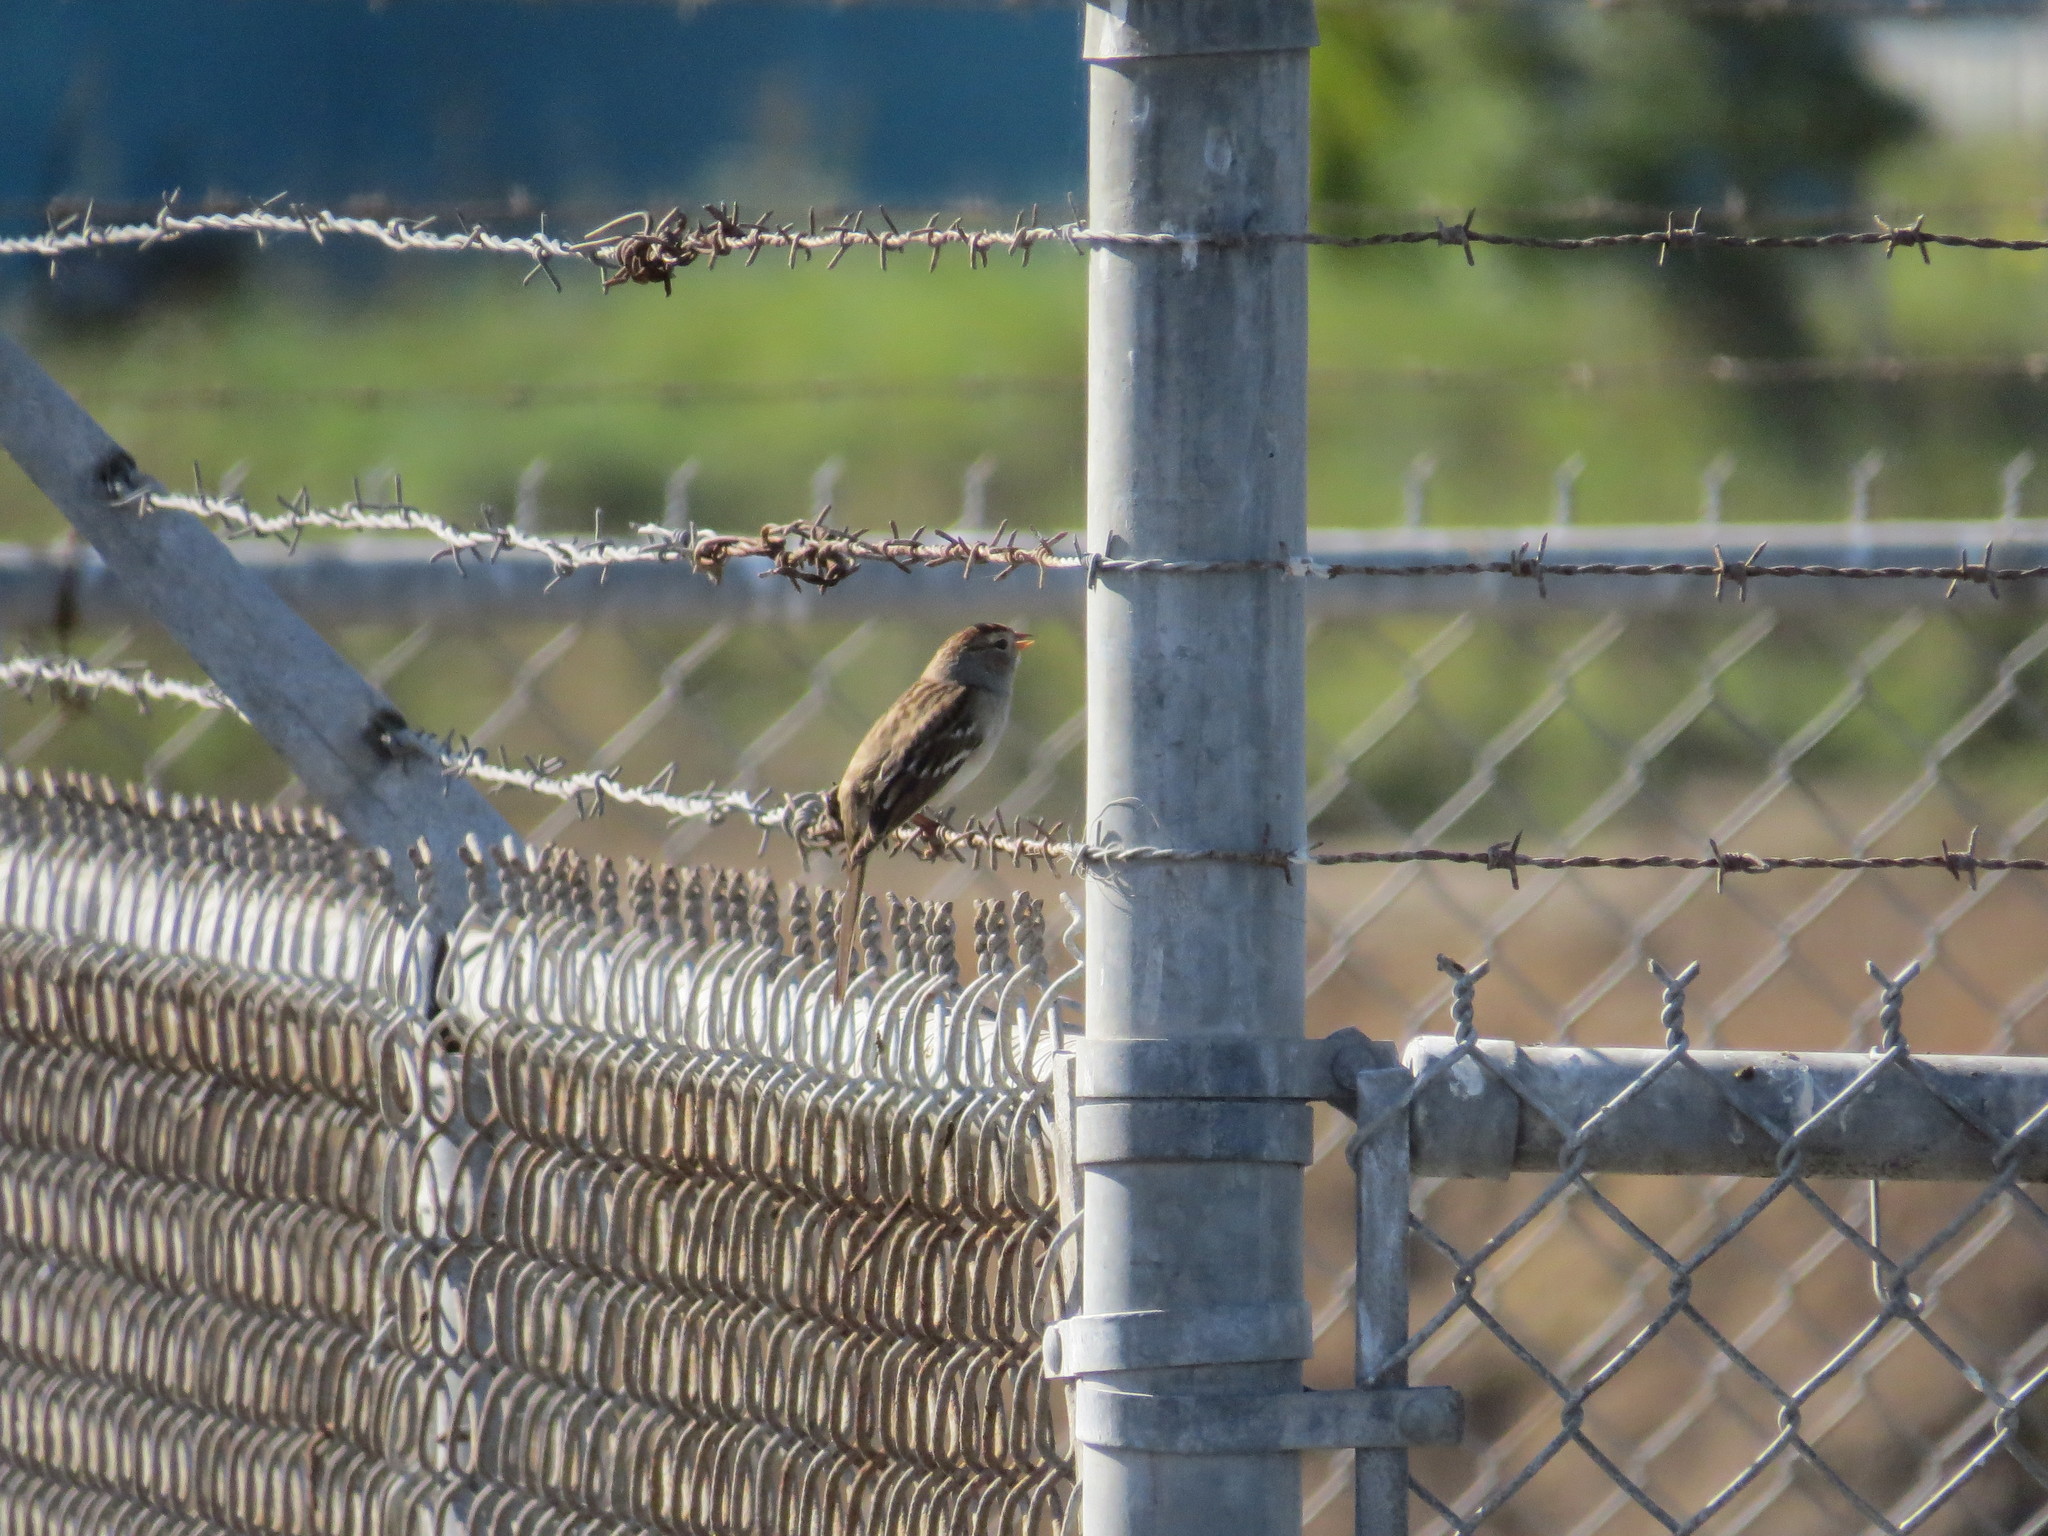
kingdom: Animalia
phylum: Chordata
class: Aves
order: Passeriformes
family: Passerellidae
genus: Zonotrichia
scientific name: Zonotrichia leucophrys
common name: White-crowned sparrow
